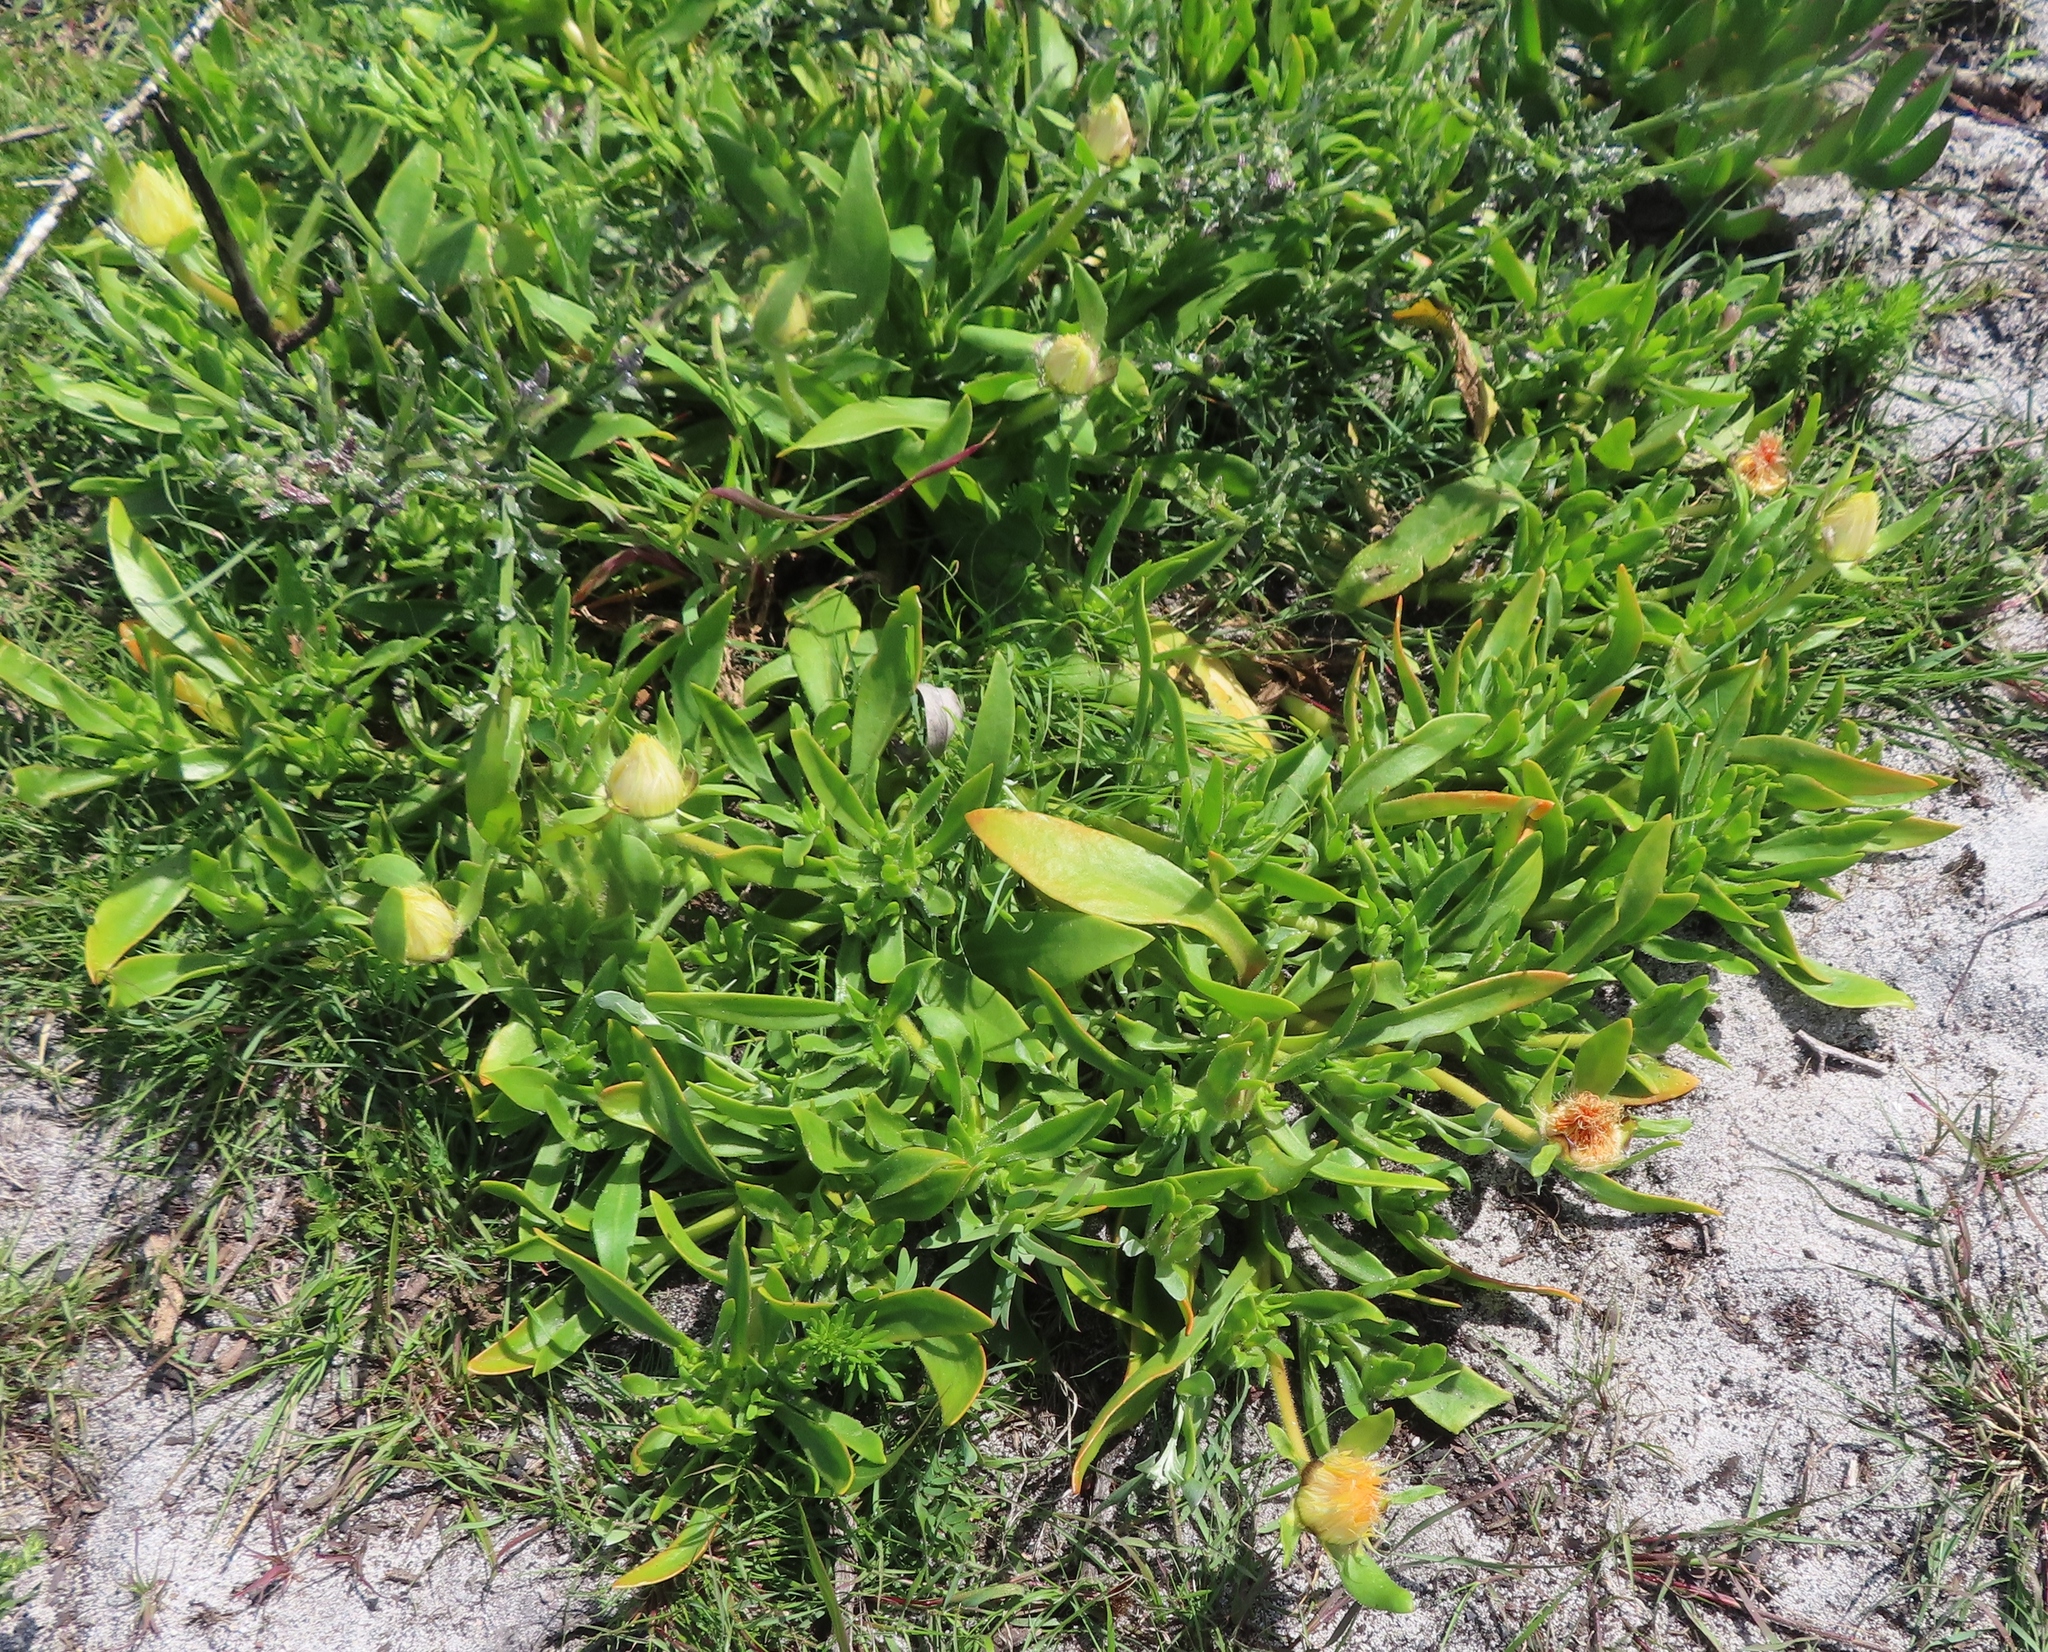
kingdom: Plantae
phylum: Tracheophyta
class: Magnoliopsida
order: Caryophyllales
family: Aizoaceae
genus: Carpanthea
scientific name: Carpanthea pomeridiana
